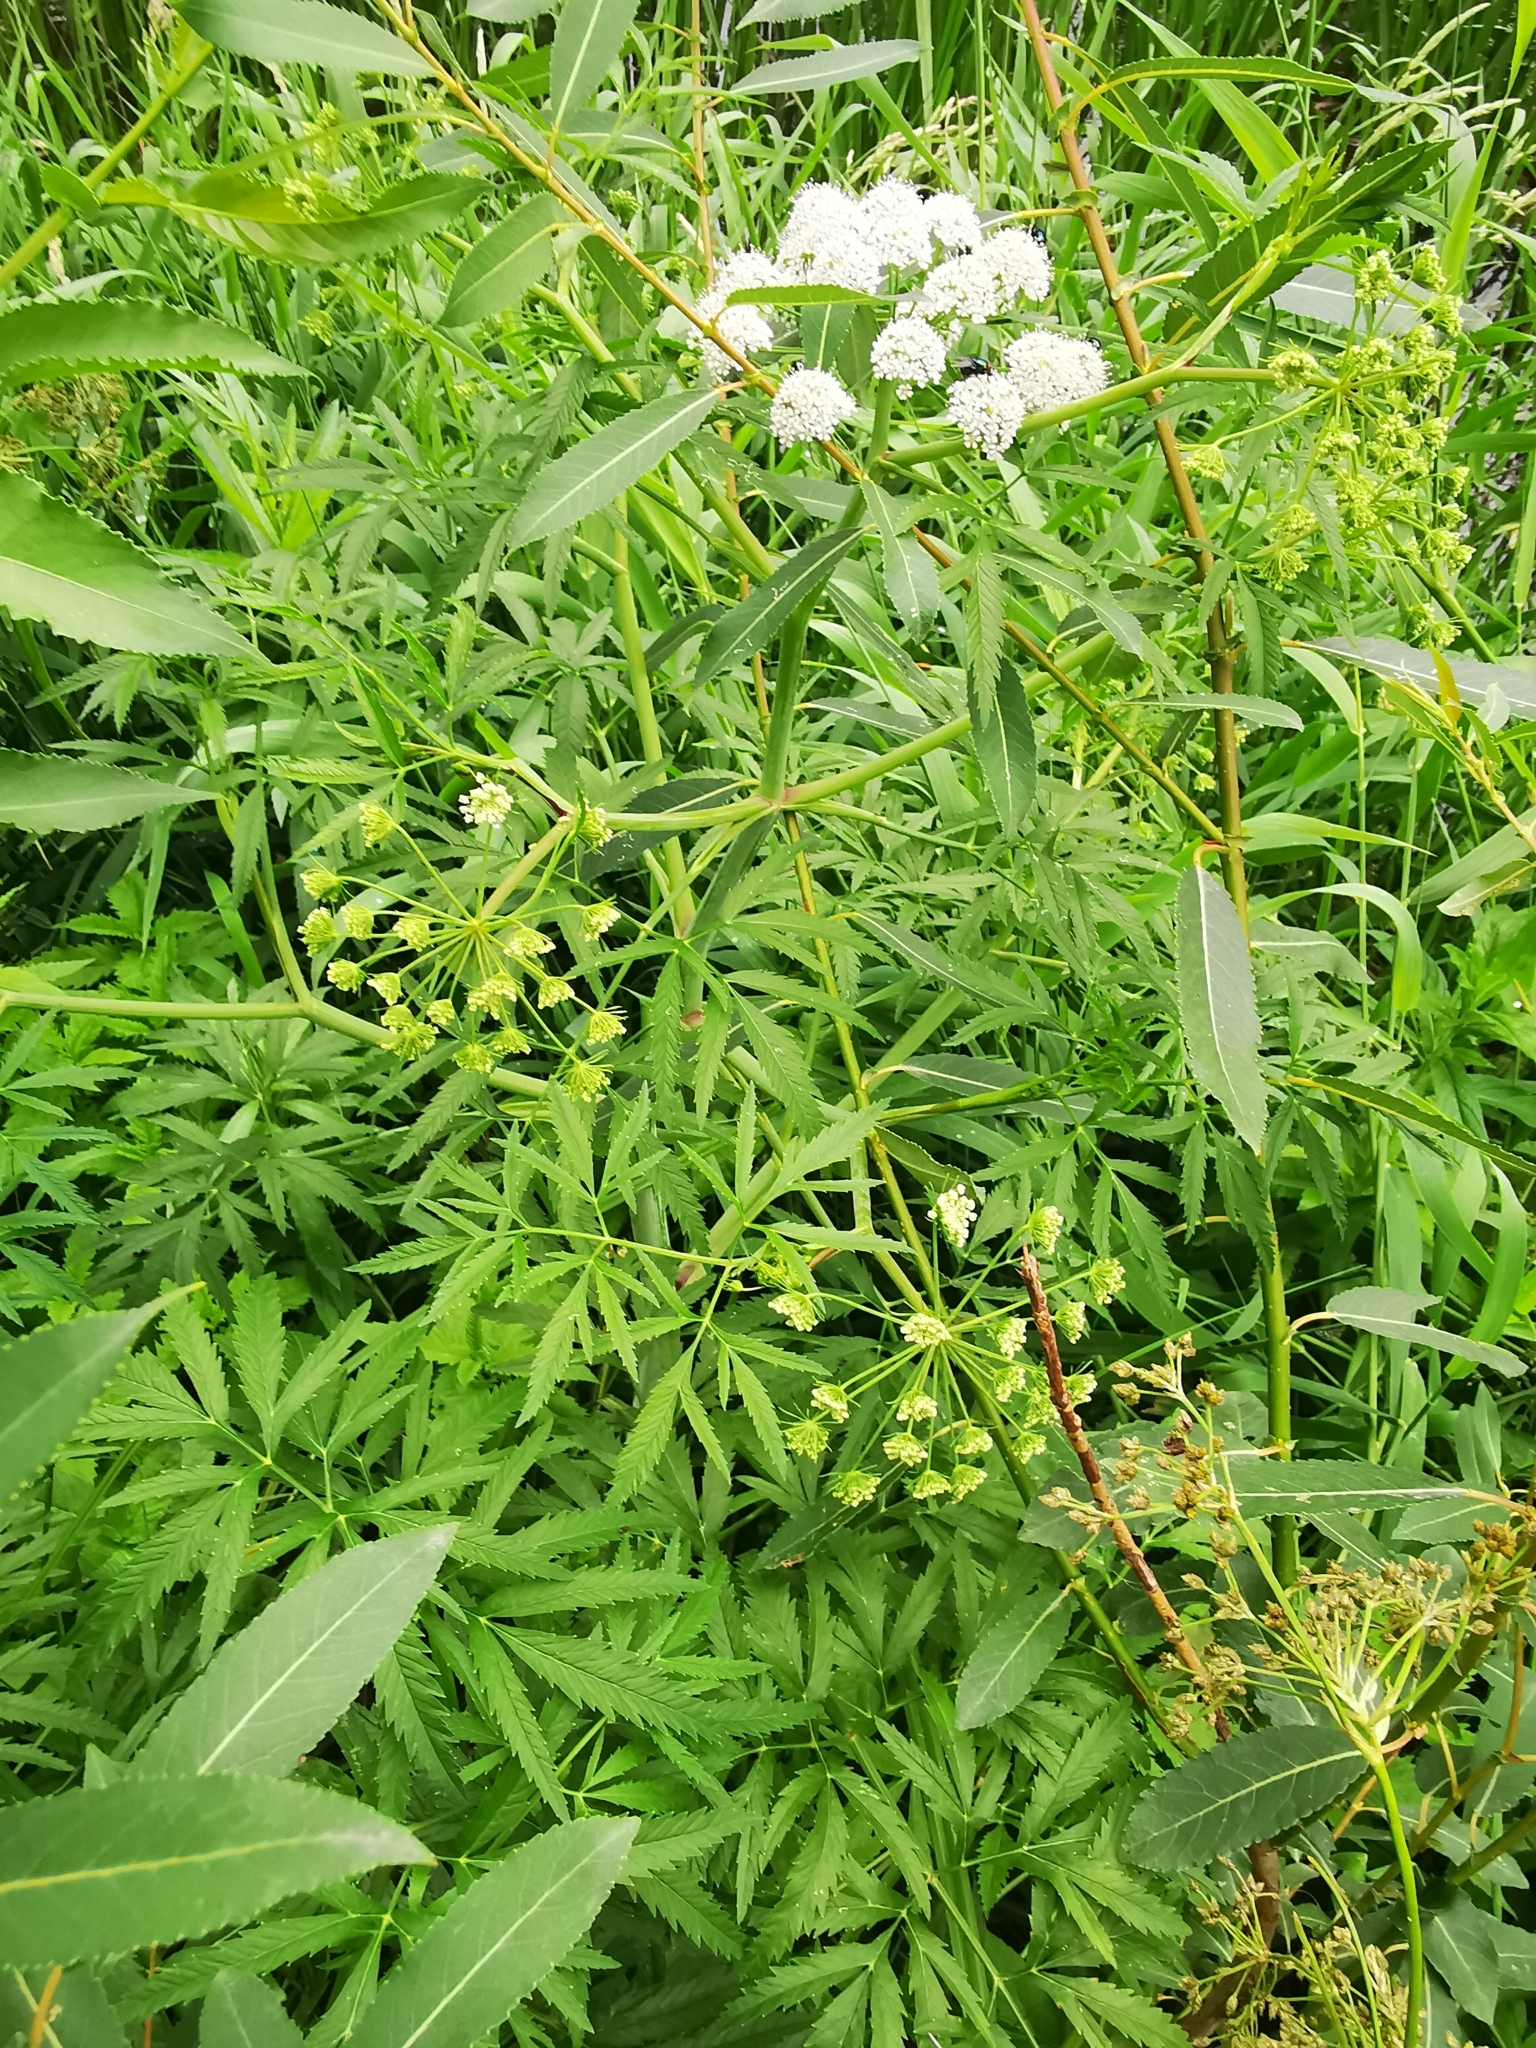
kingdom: Plantae
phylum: Tracheophyta
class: Magnoliopsida
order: Apiales
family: Apiaceae
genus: Cicuta
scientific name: Cicuta virosa
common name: Cowbane
